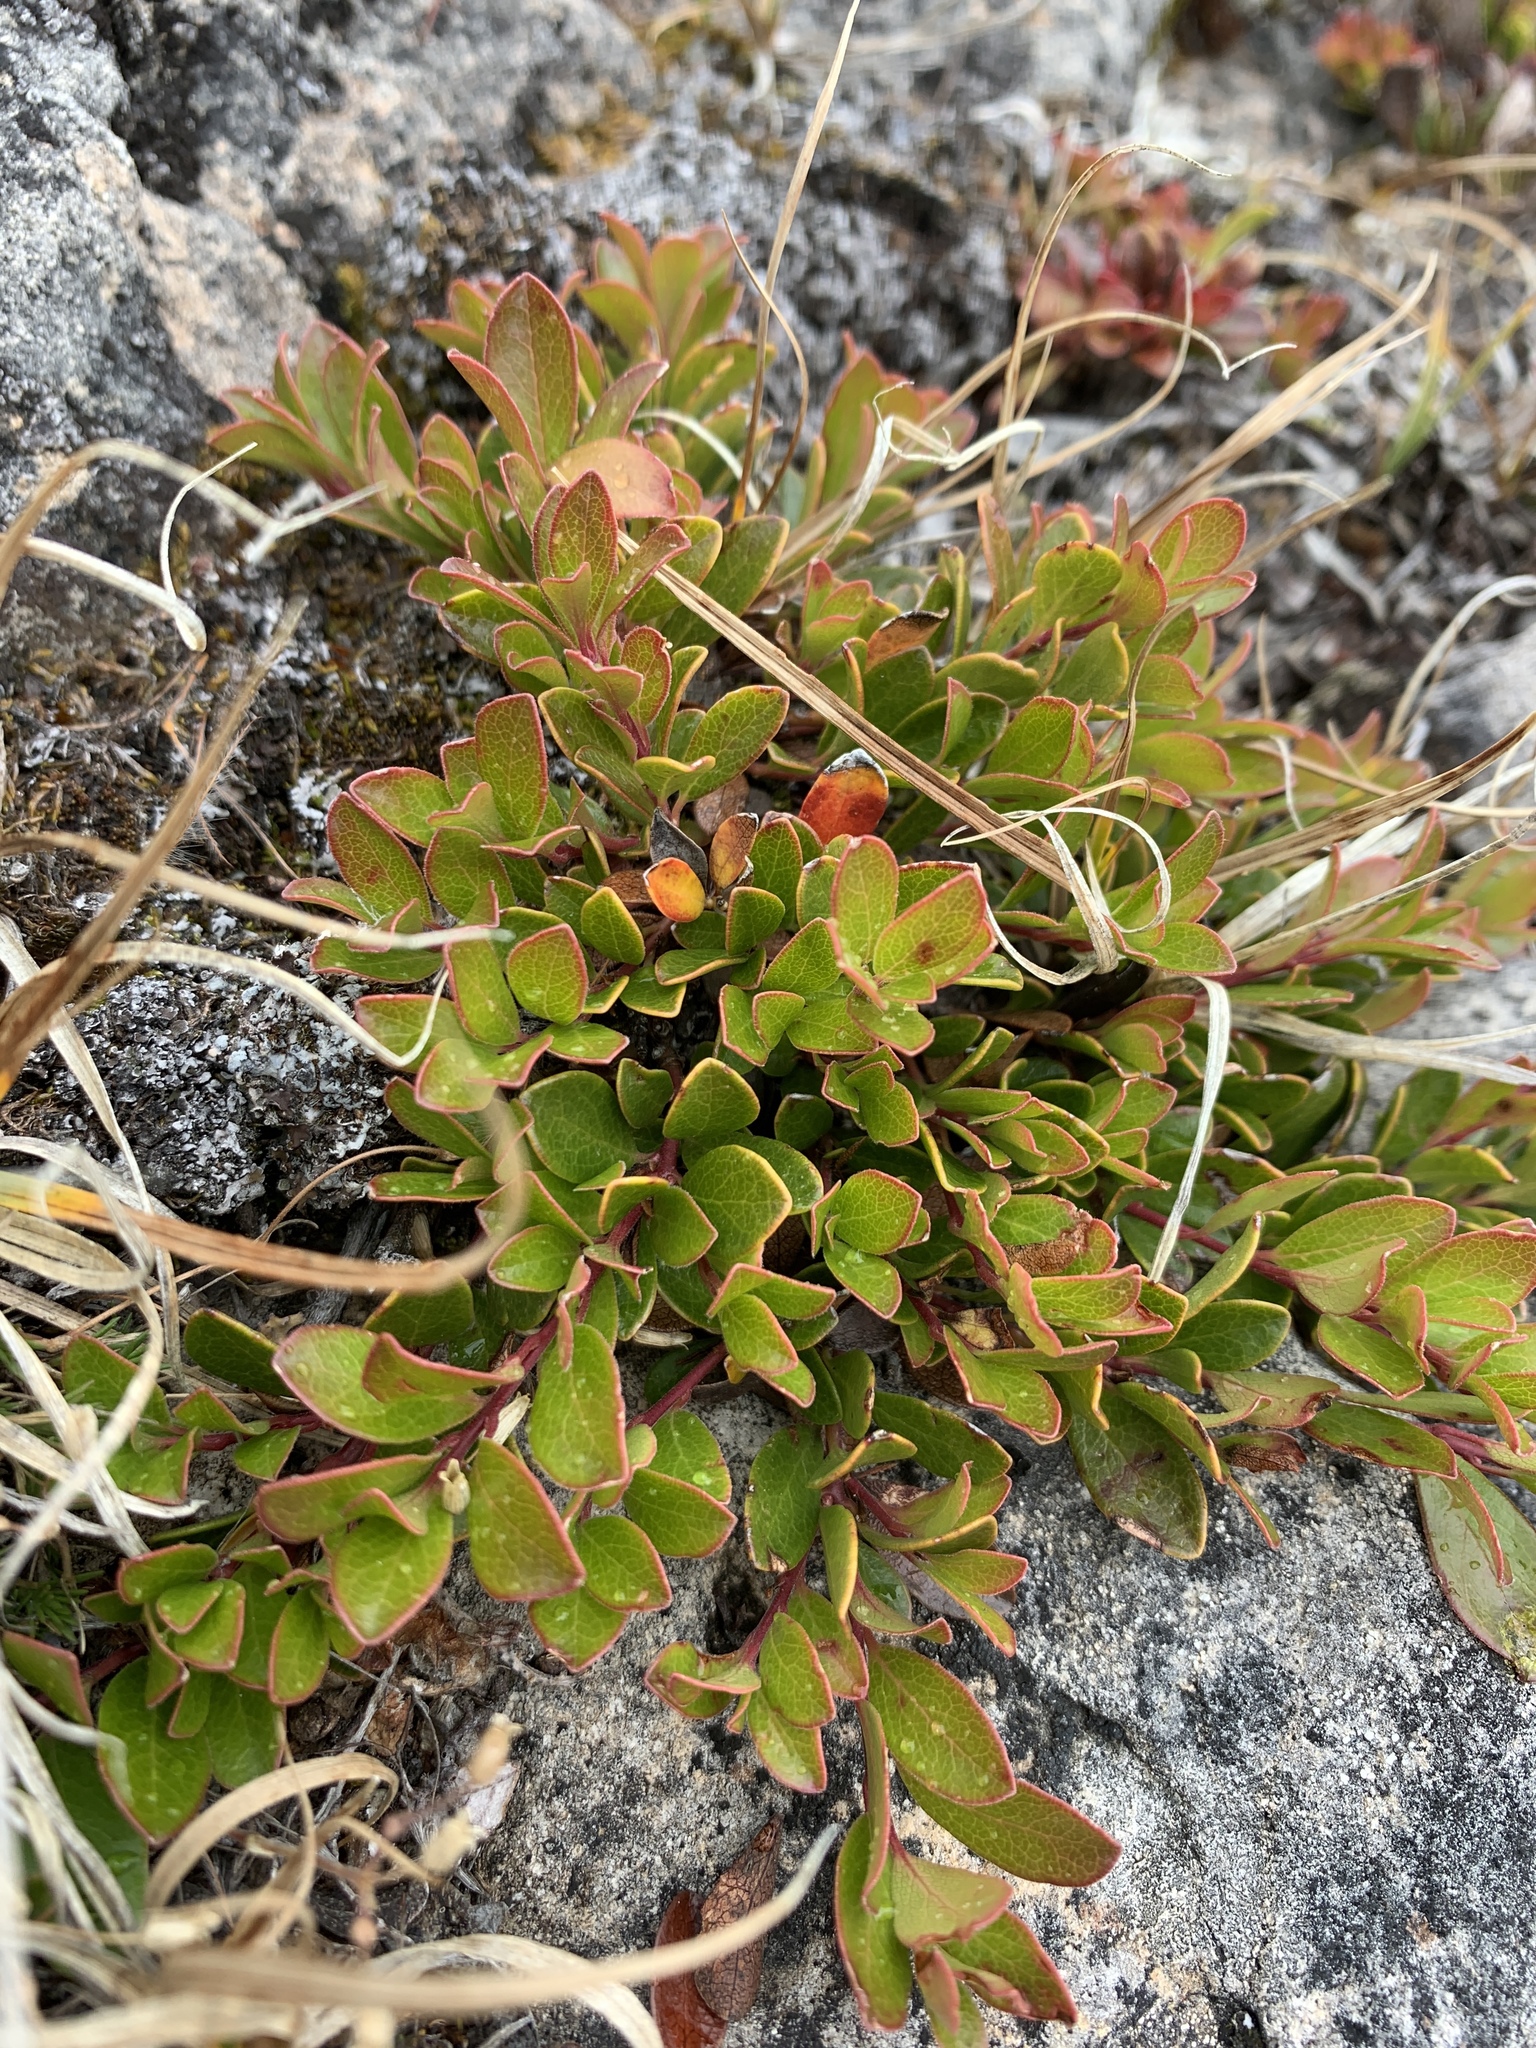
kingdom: Plantae
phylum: Tracheophyta
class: Magnoliopsida
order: Ericales
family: Ericaceae
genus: Arctostaphylos
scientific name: Arctostaphylos uva-ursi
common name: Bearberry
